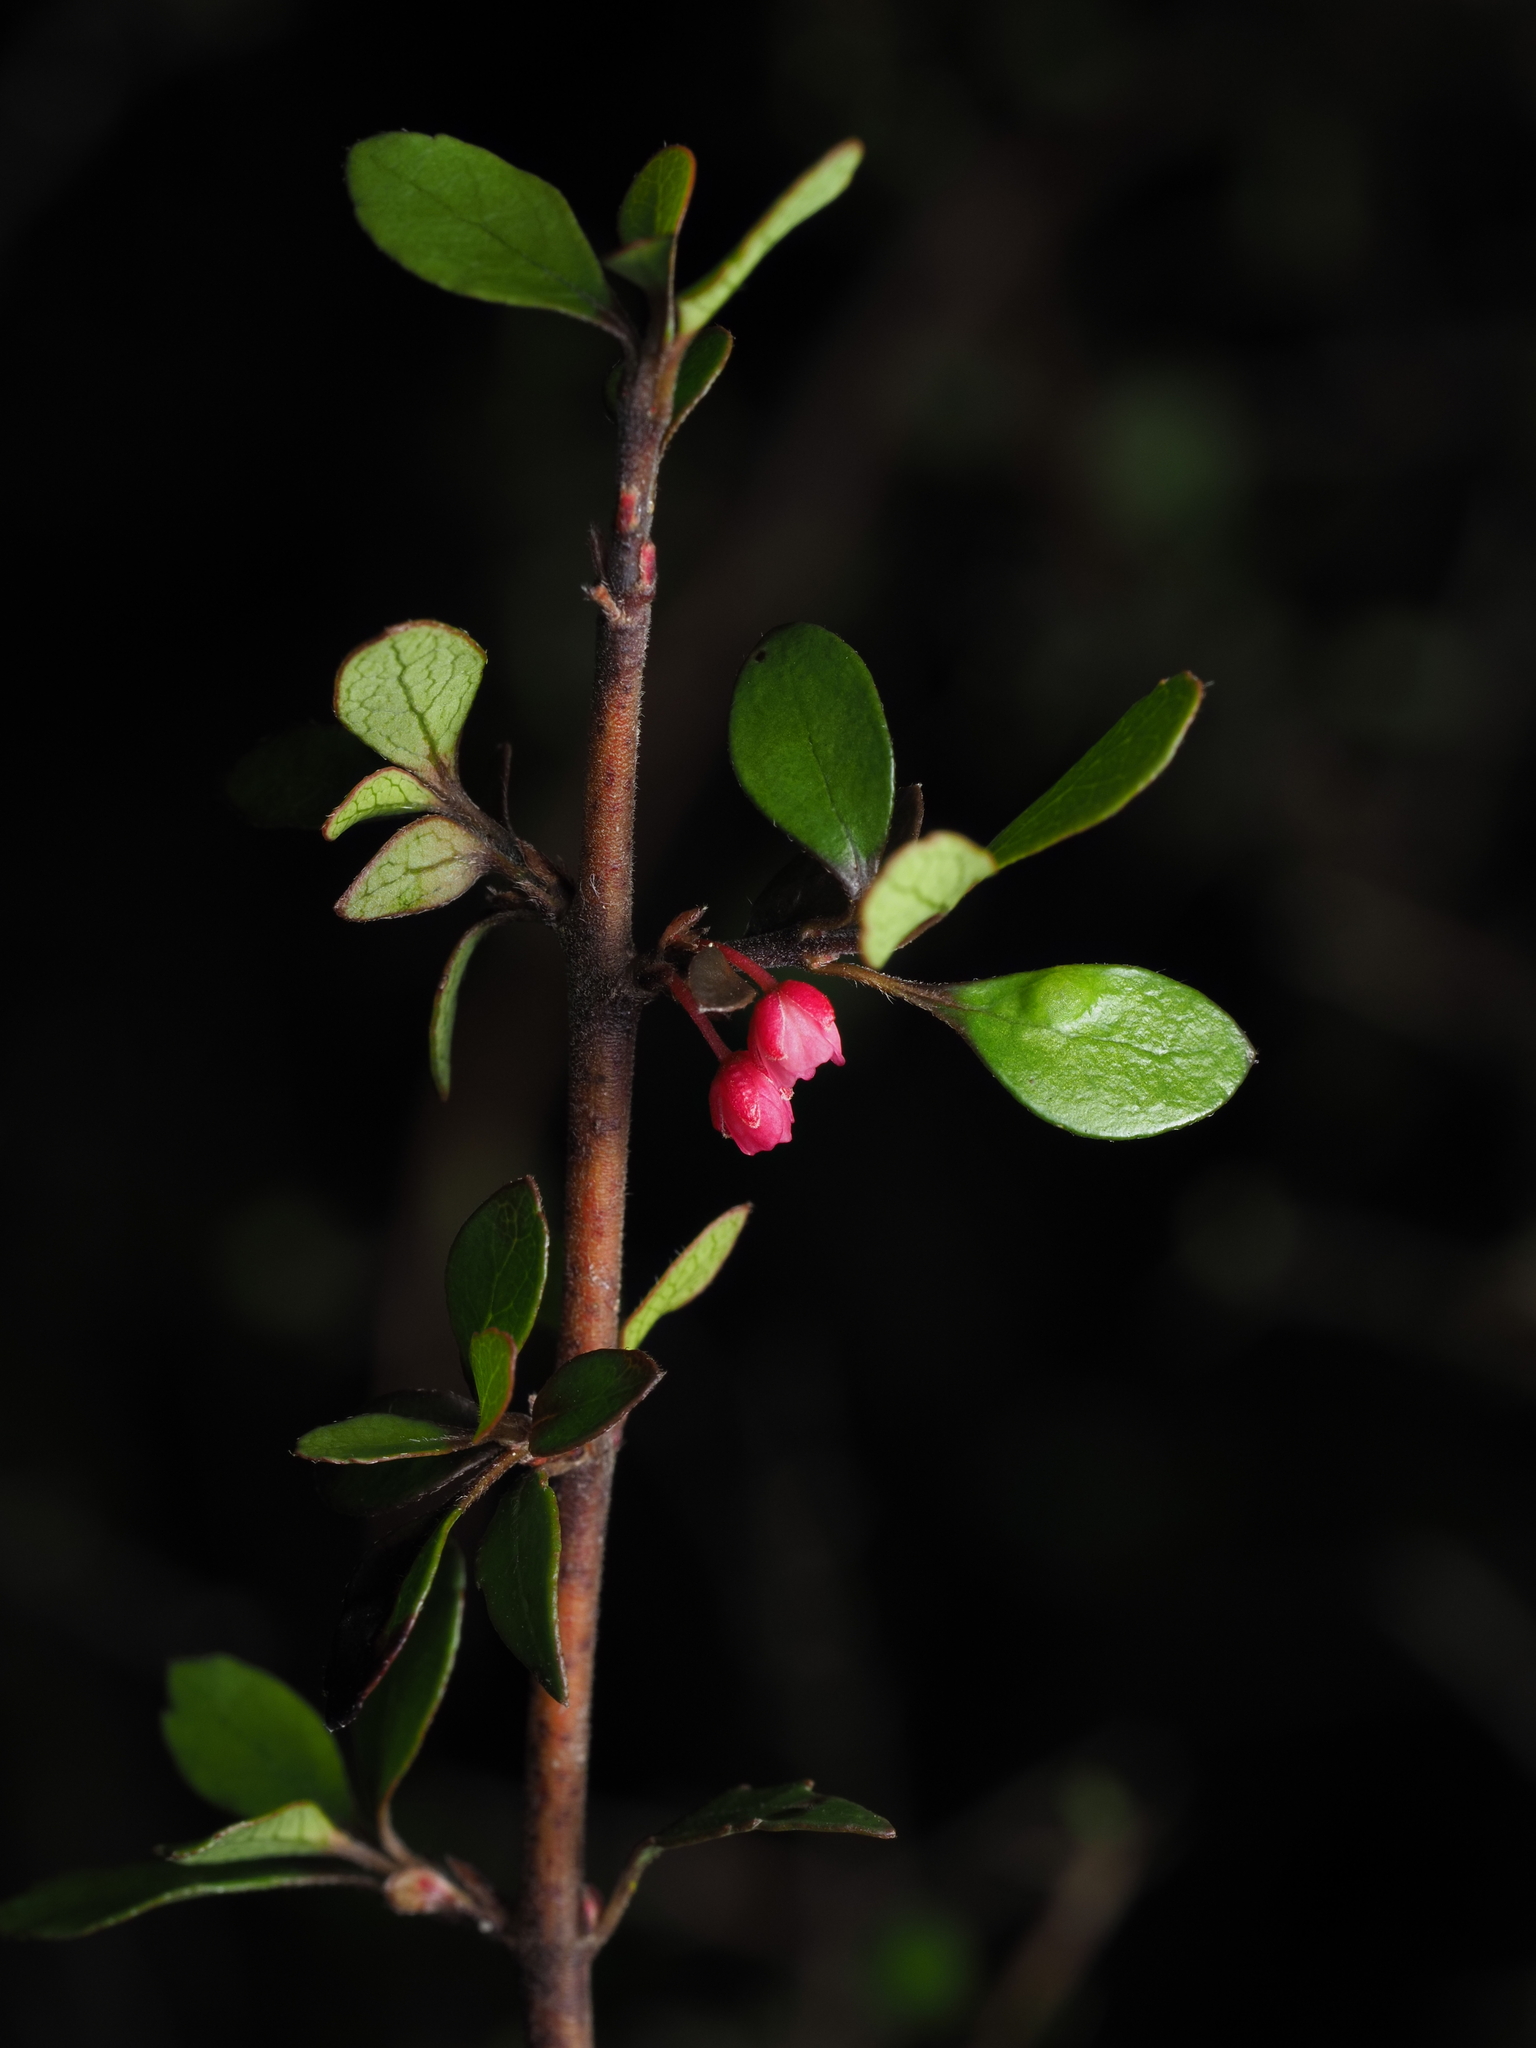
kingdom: Plantae
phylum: Tracheophyta
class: Magnoliopsida
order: Oxalidales
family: Elaeocarpaceae
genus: Aristotelia
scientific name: Aristotelia fruticosa
